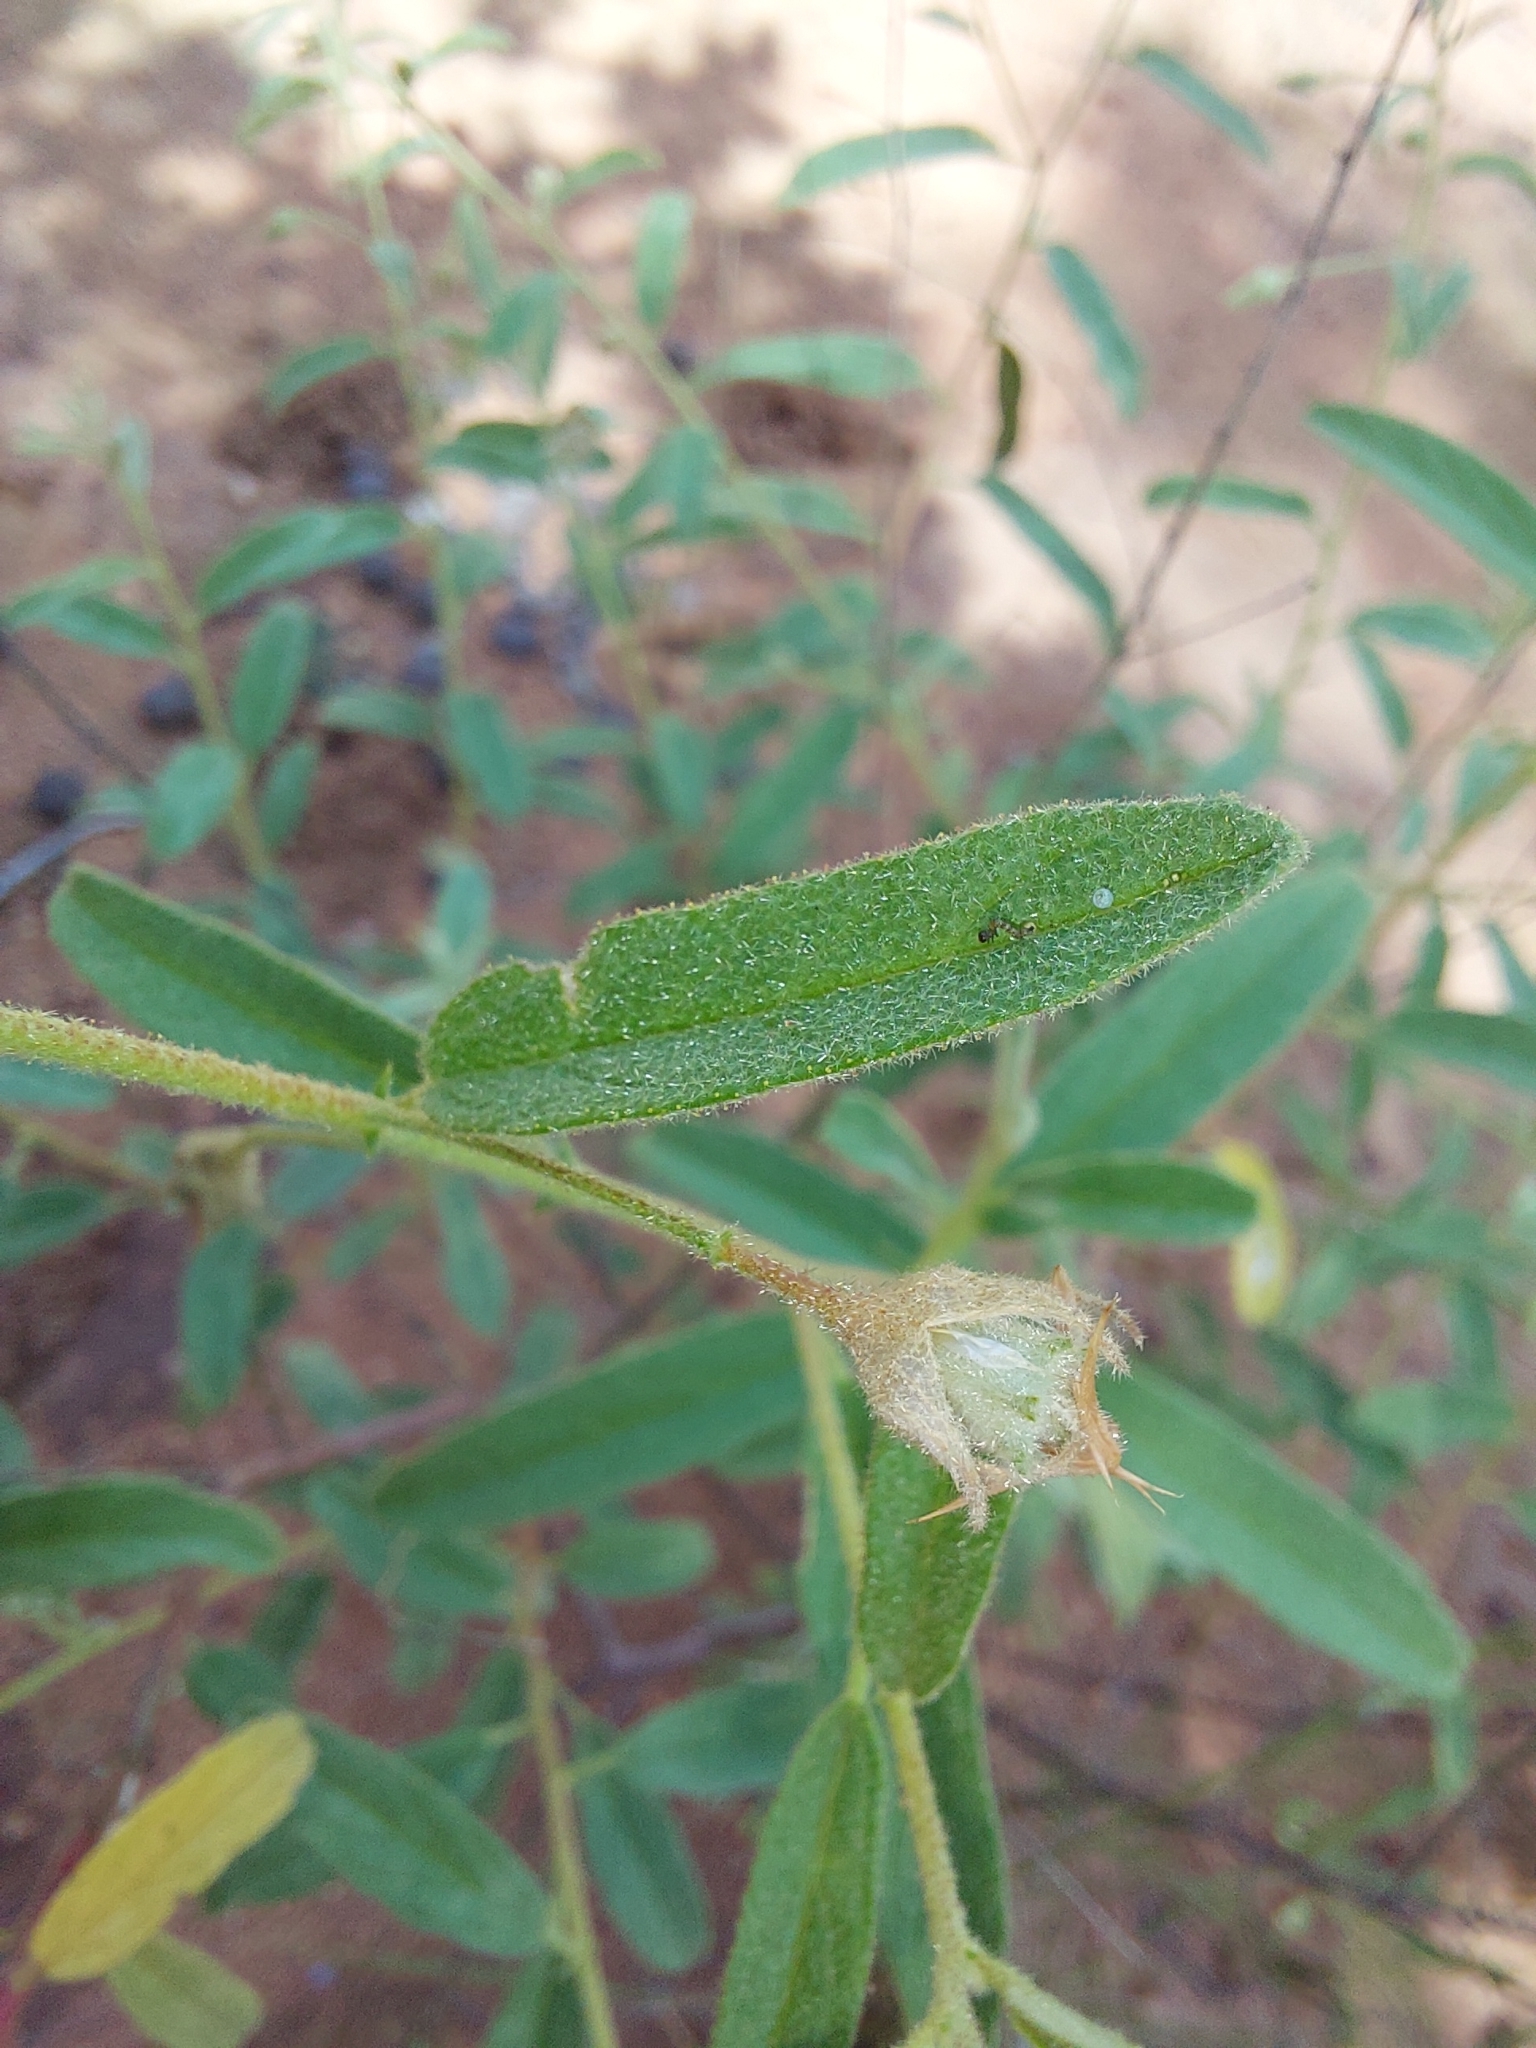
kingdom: Plantae
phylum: Tracheophyta
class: Magnoliopsida
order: Malvales
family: Malvaceae
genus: Hermannia
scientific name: Hermannia boraginiflora
